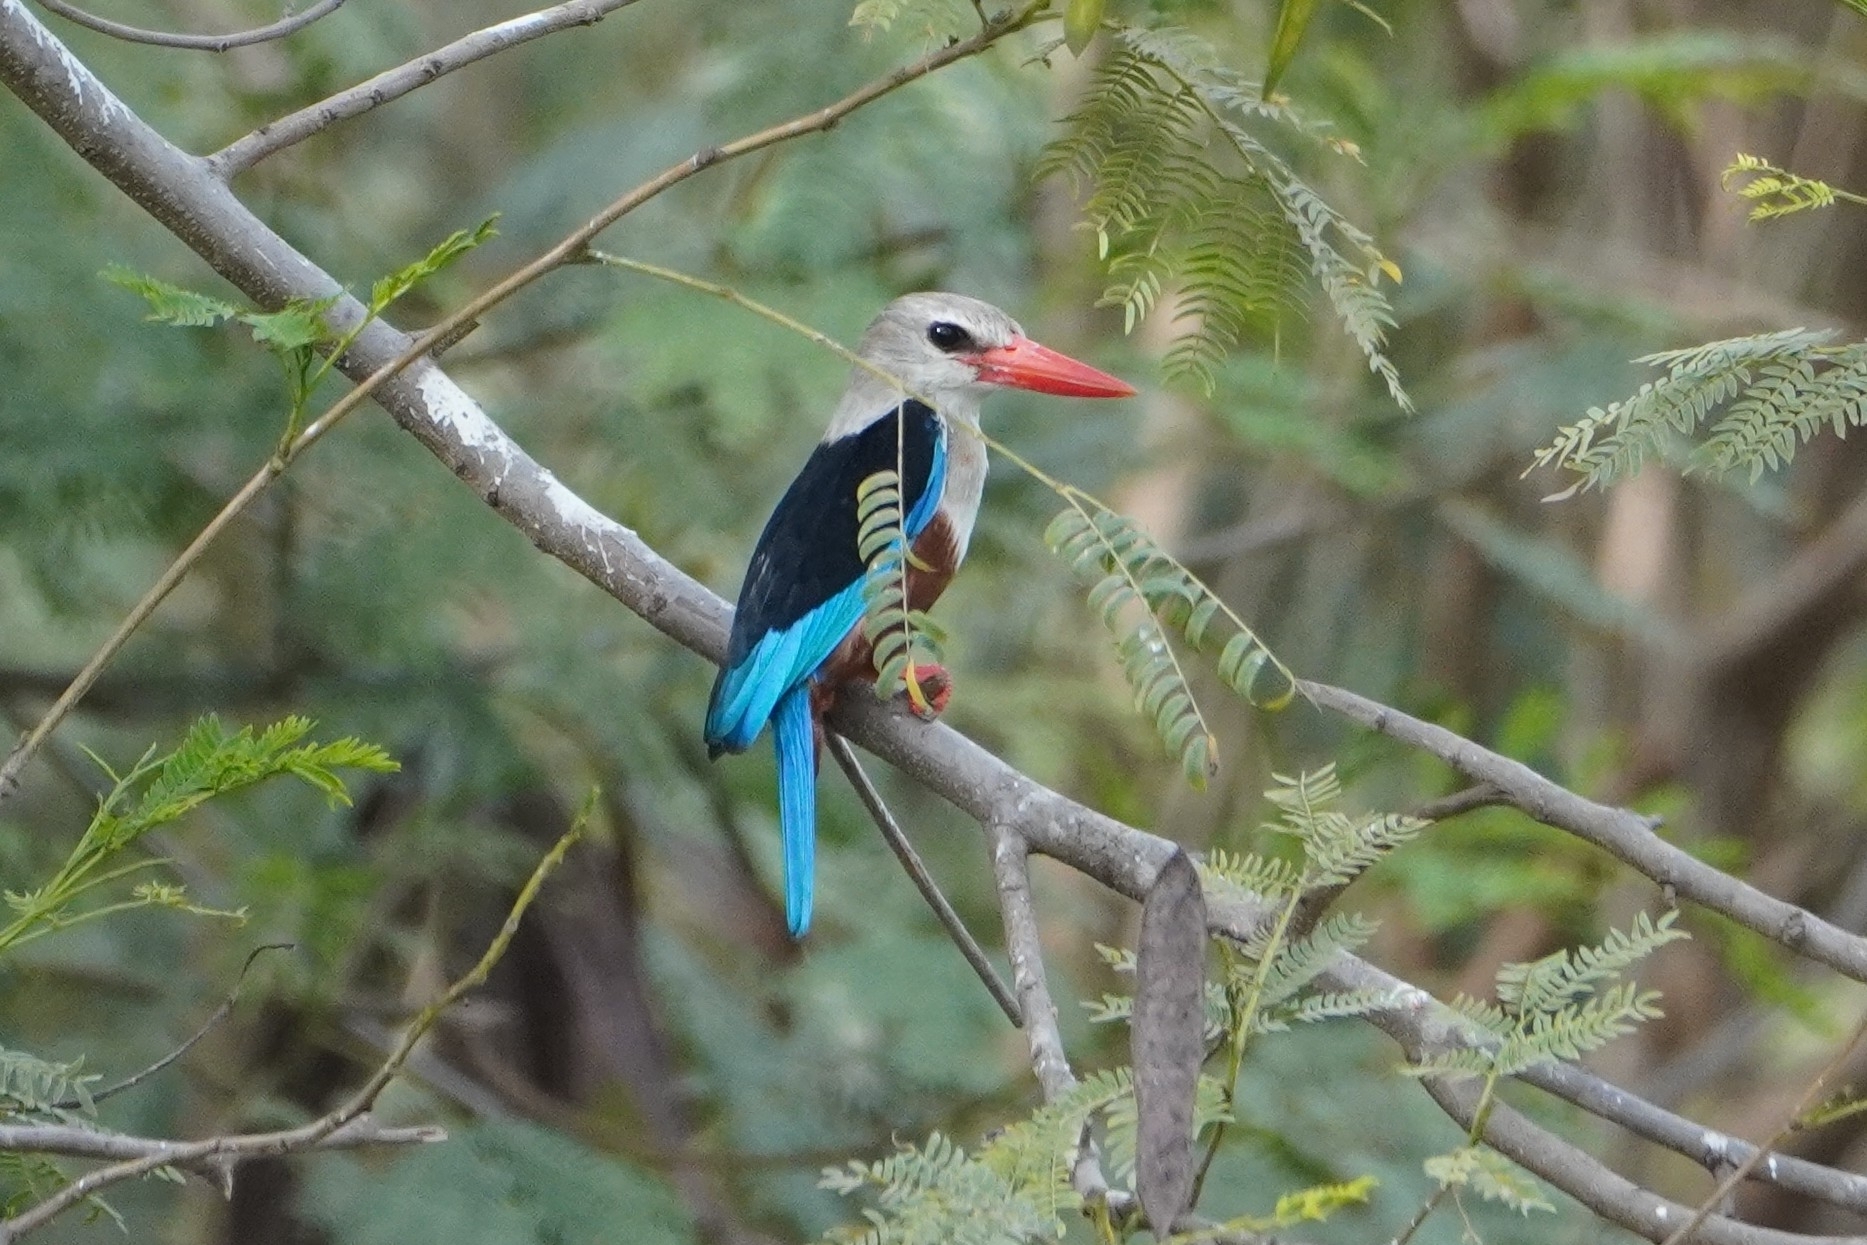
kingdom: Animalia
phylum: Chordata
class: Aves
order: Coraciiformes
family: Alcedinidae
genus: Halcyon
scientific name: Halcyon leucocephala
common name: Grey-headed kingfisher
